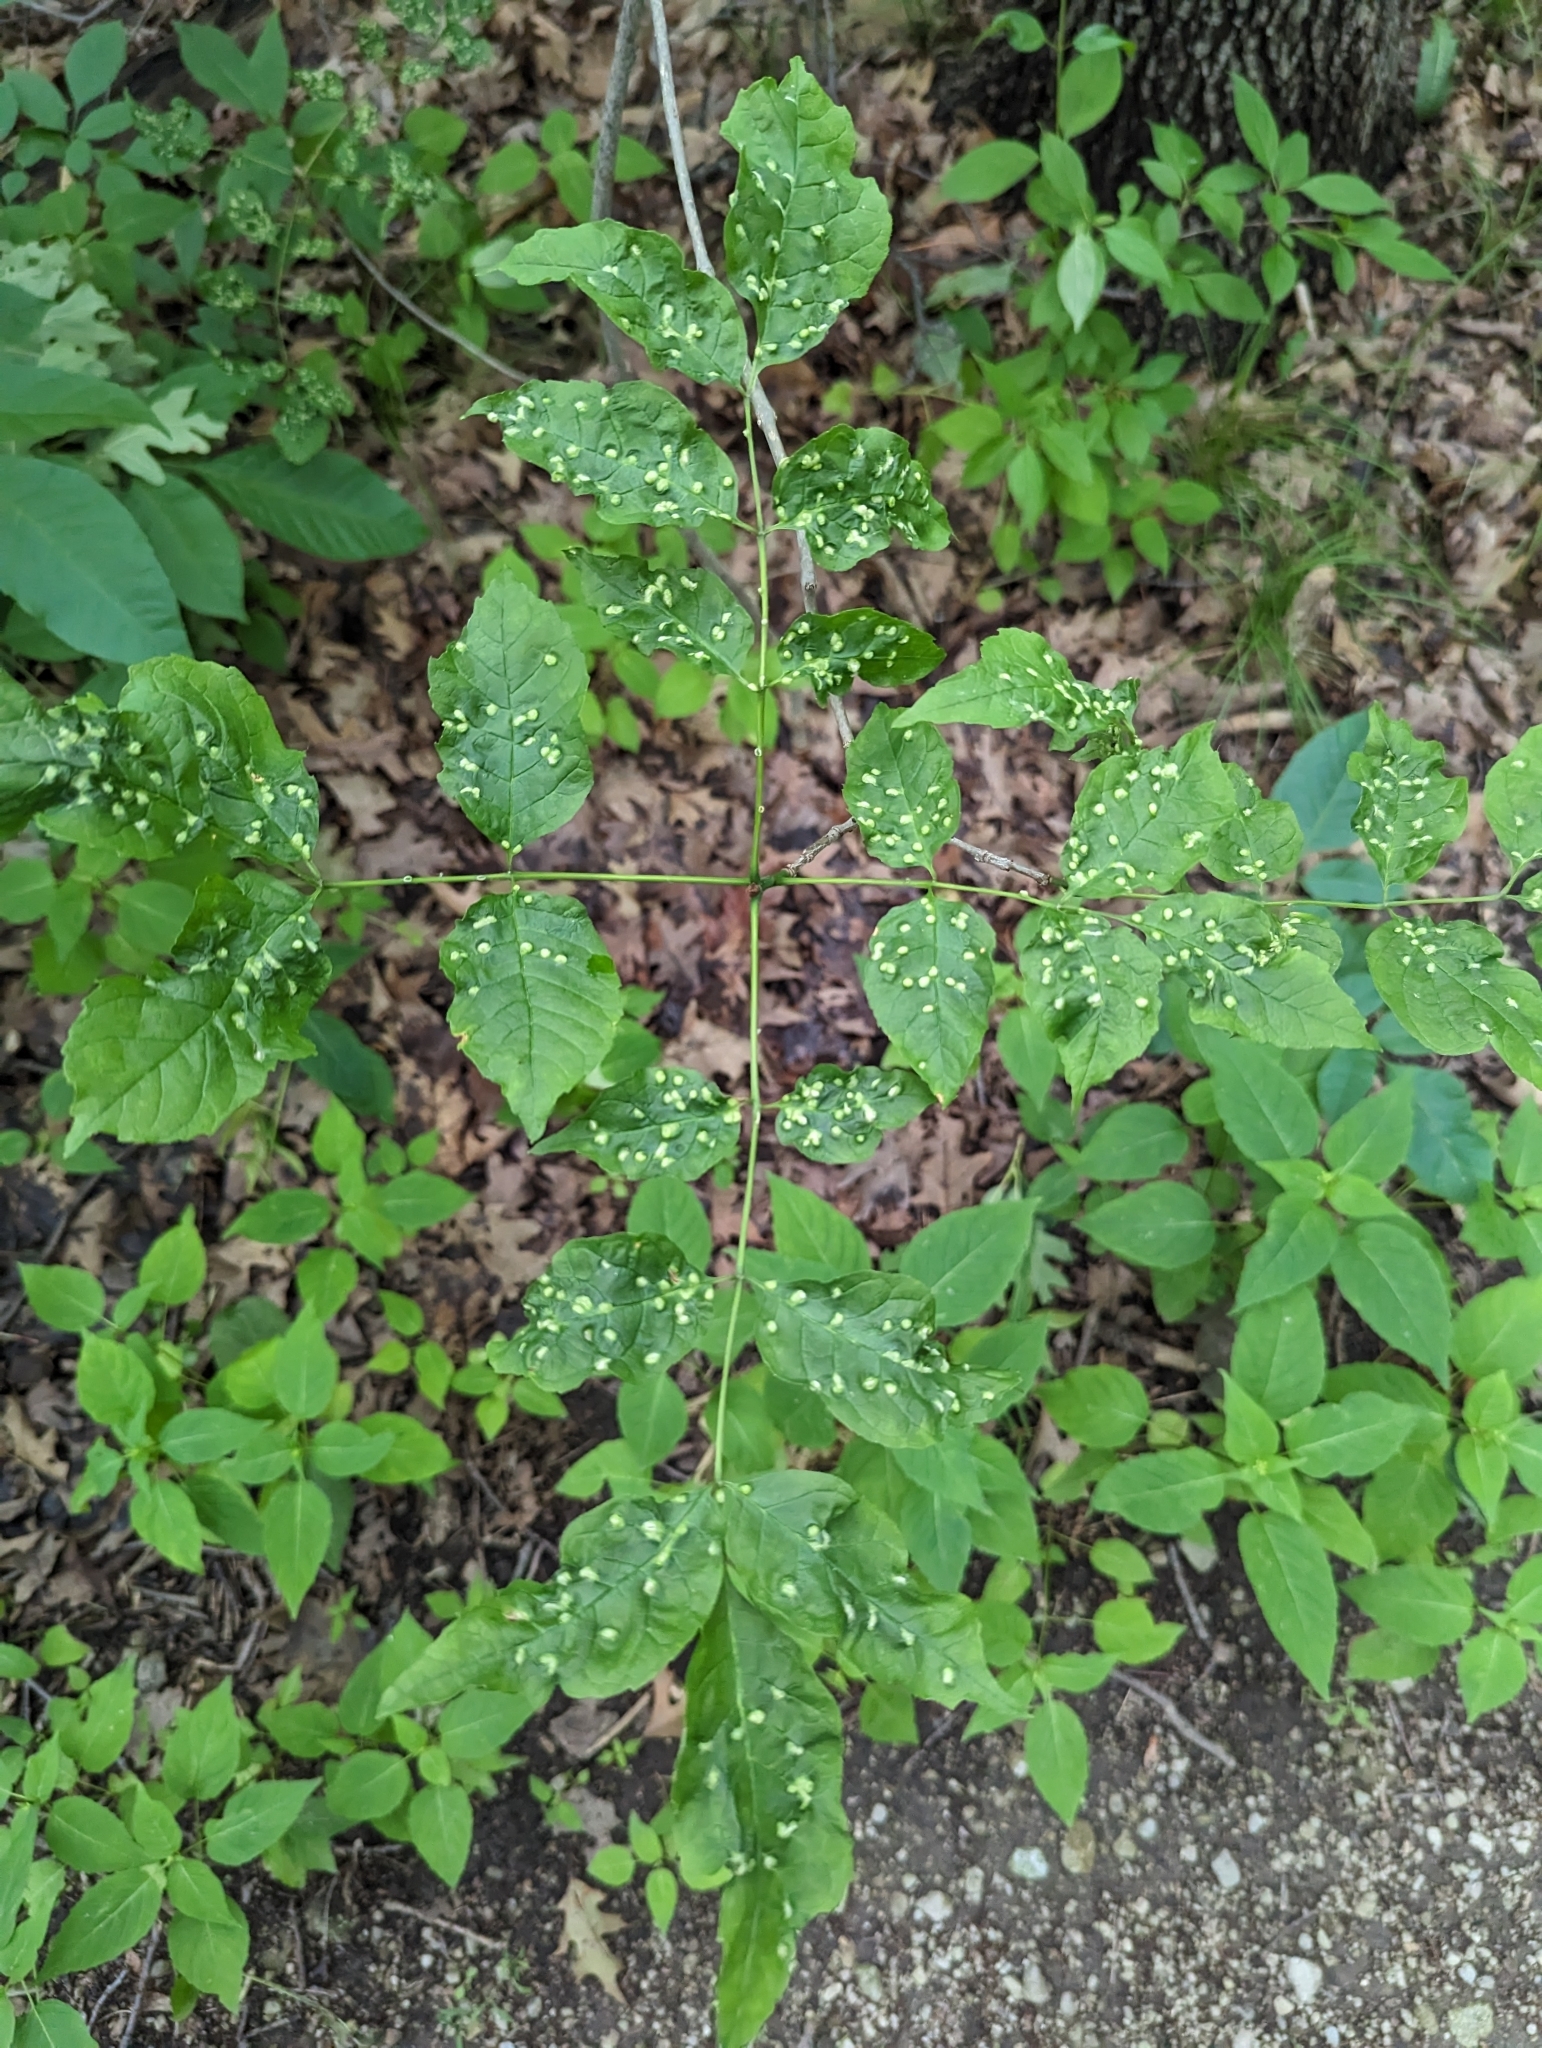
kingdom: Animalia
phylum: Arthropoda
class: Arachnida
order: Trombidiformes
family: Eriophyidae
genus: Aceria
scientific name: Aceria fraxinicola
